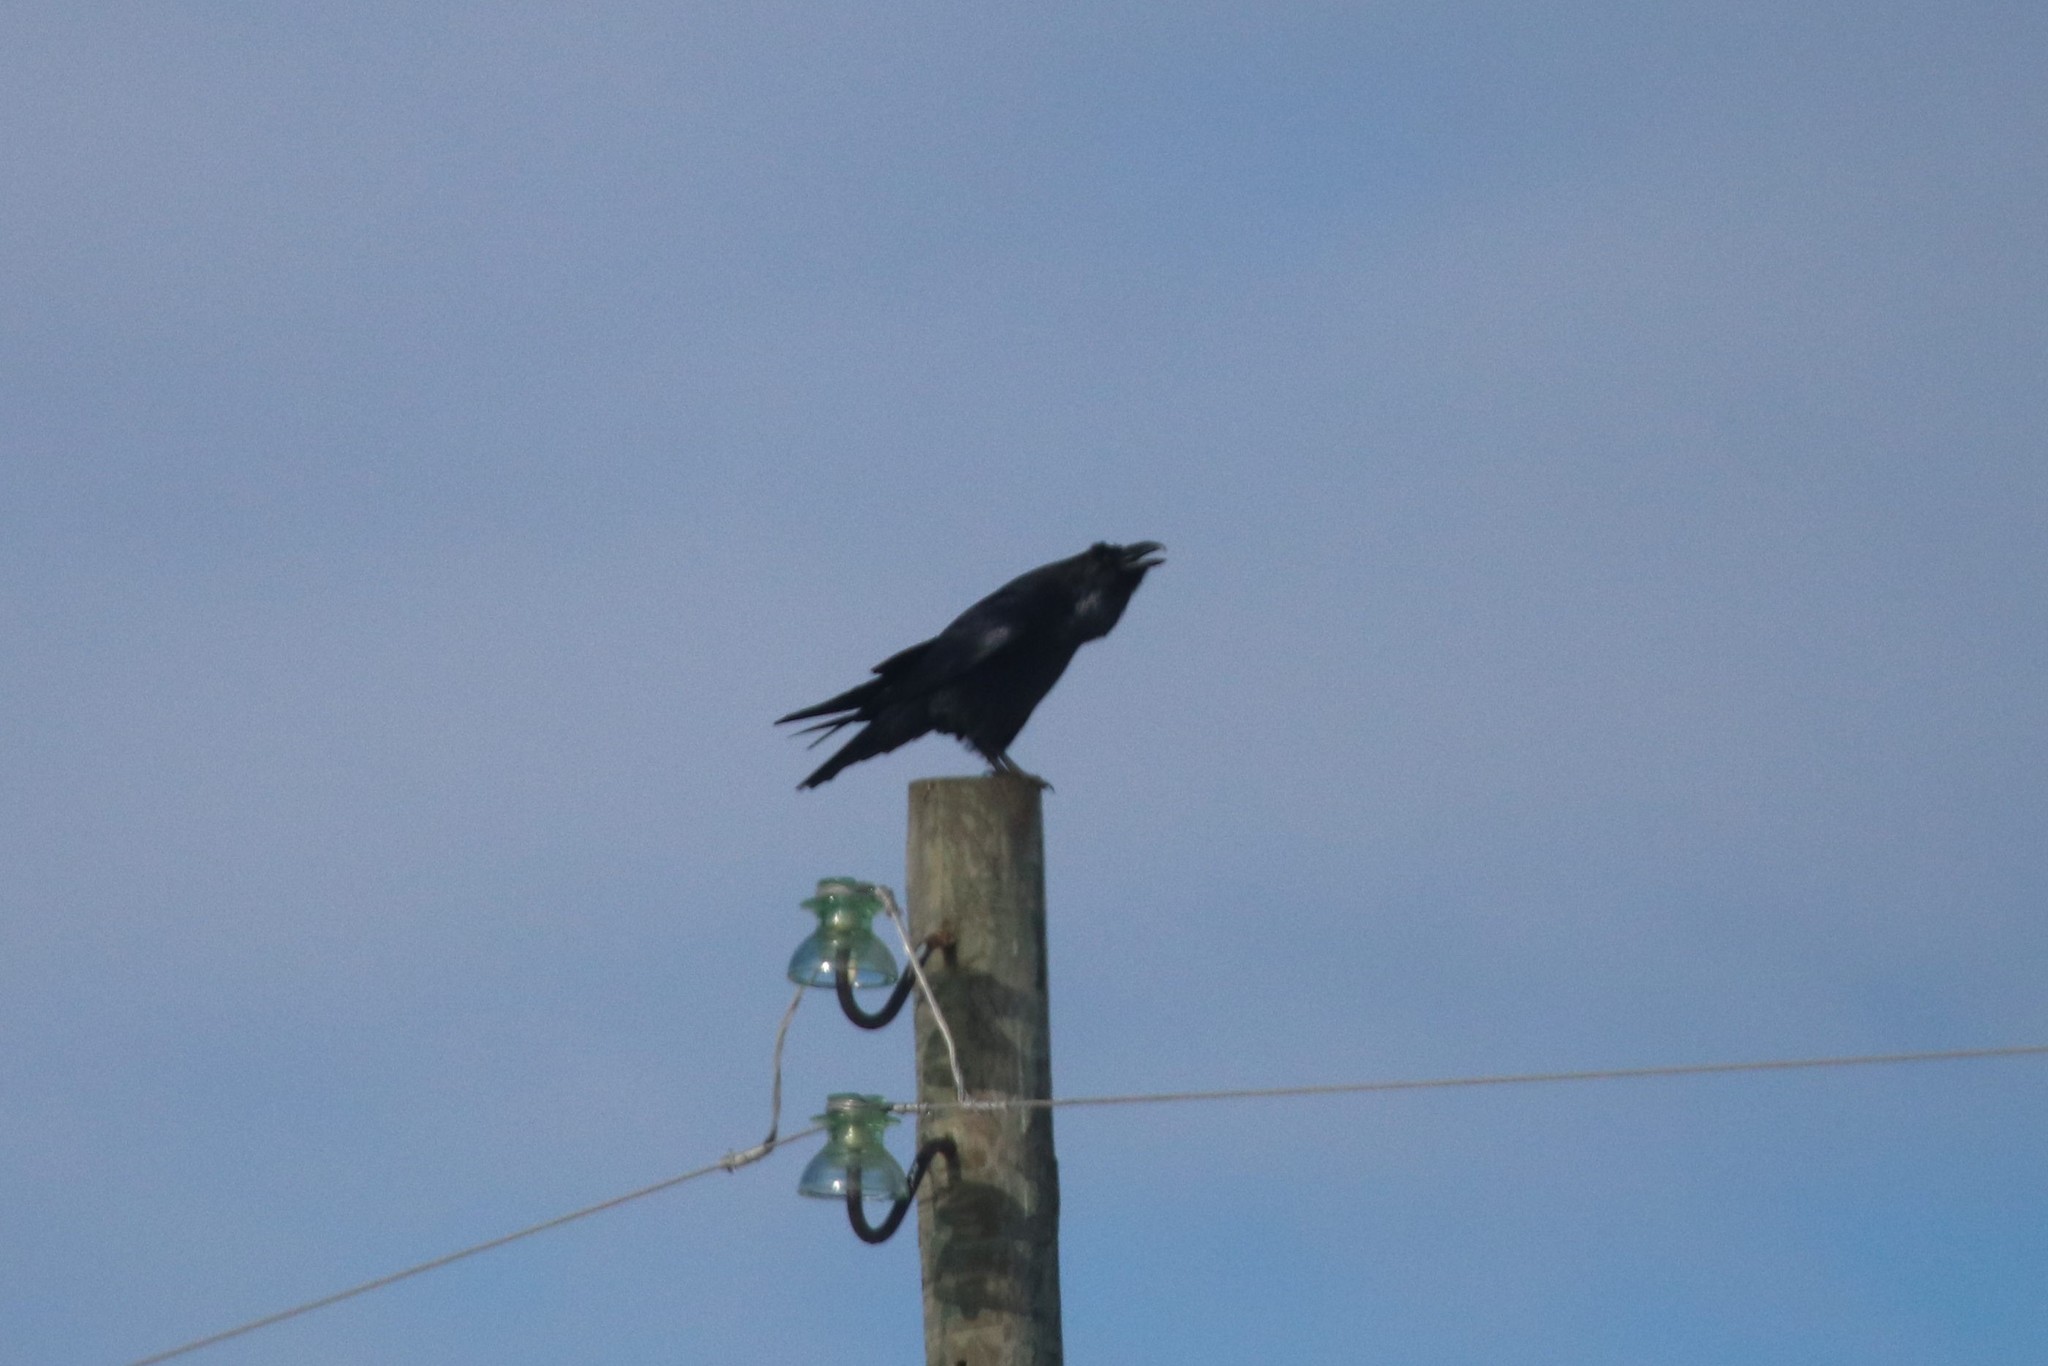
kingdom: Animalia
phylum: Chordata
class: Aves
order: Passeriformes
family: Corvidae
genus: Corvus
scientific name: Corvus corax
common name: Common raven
